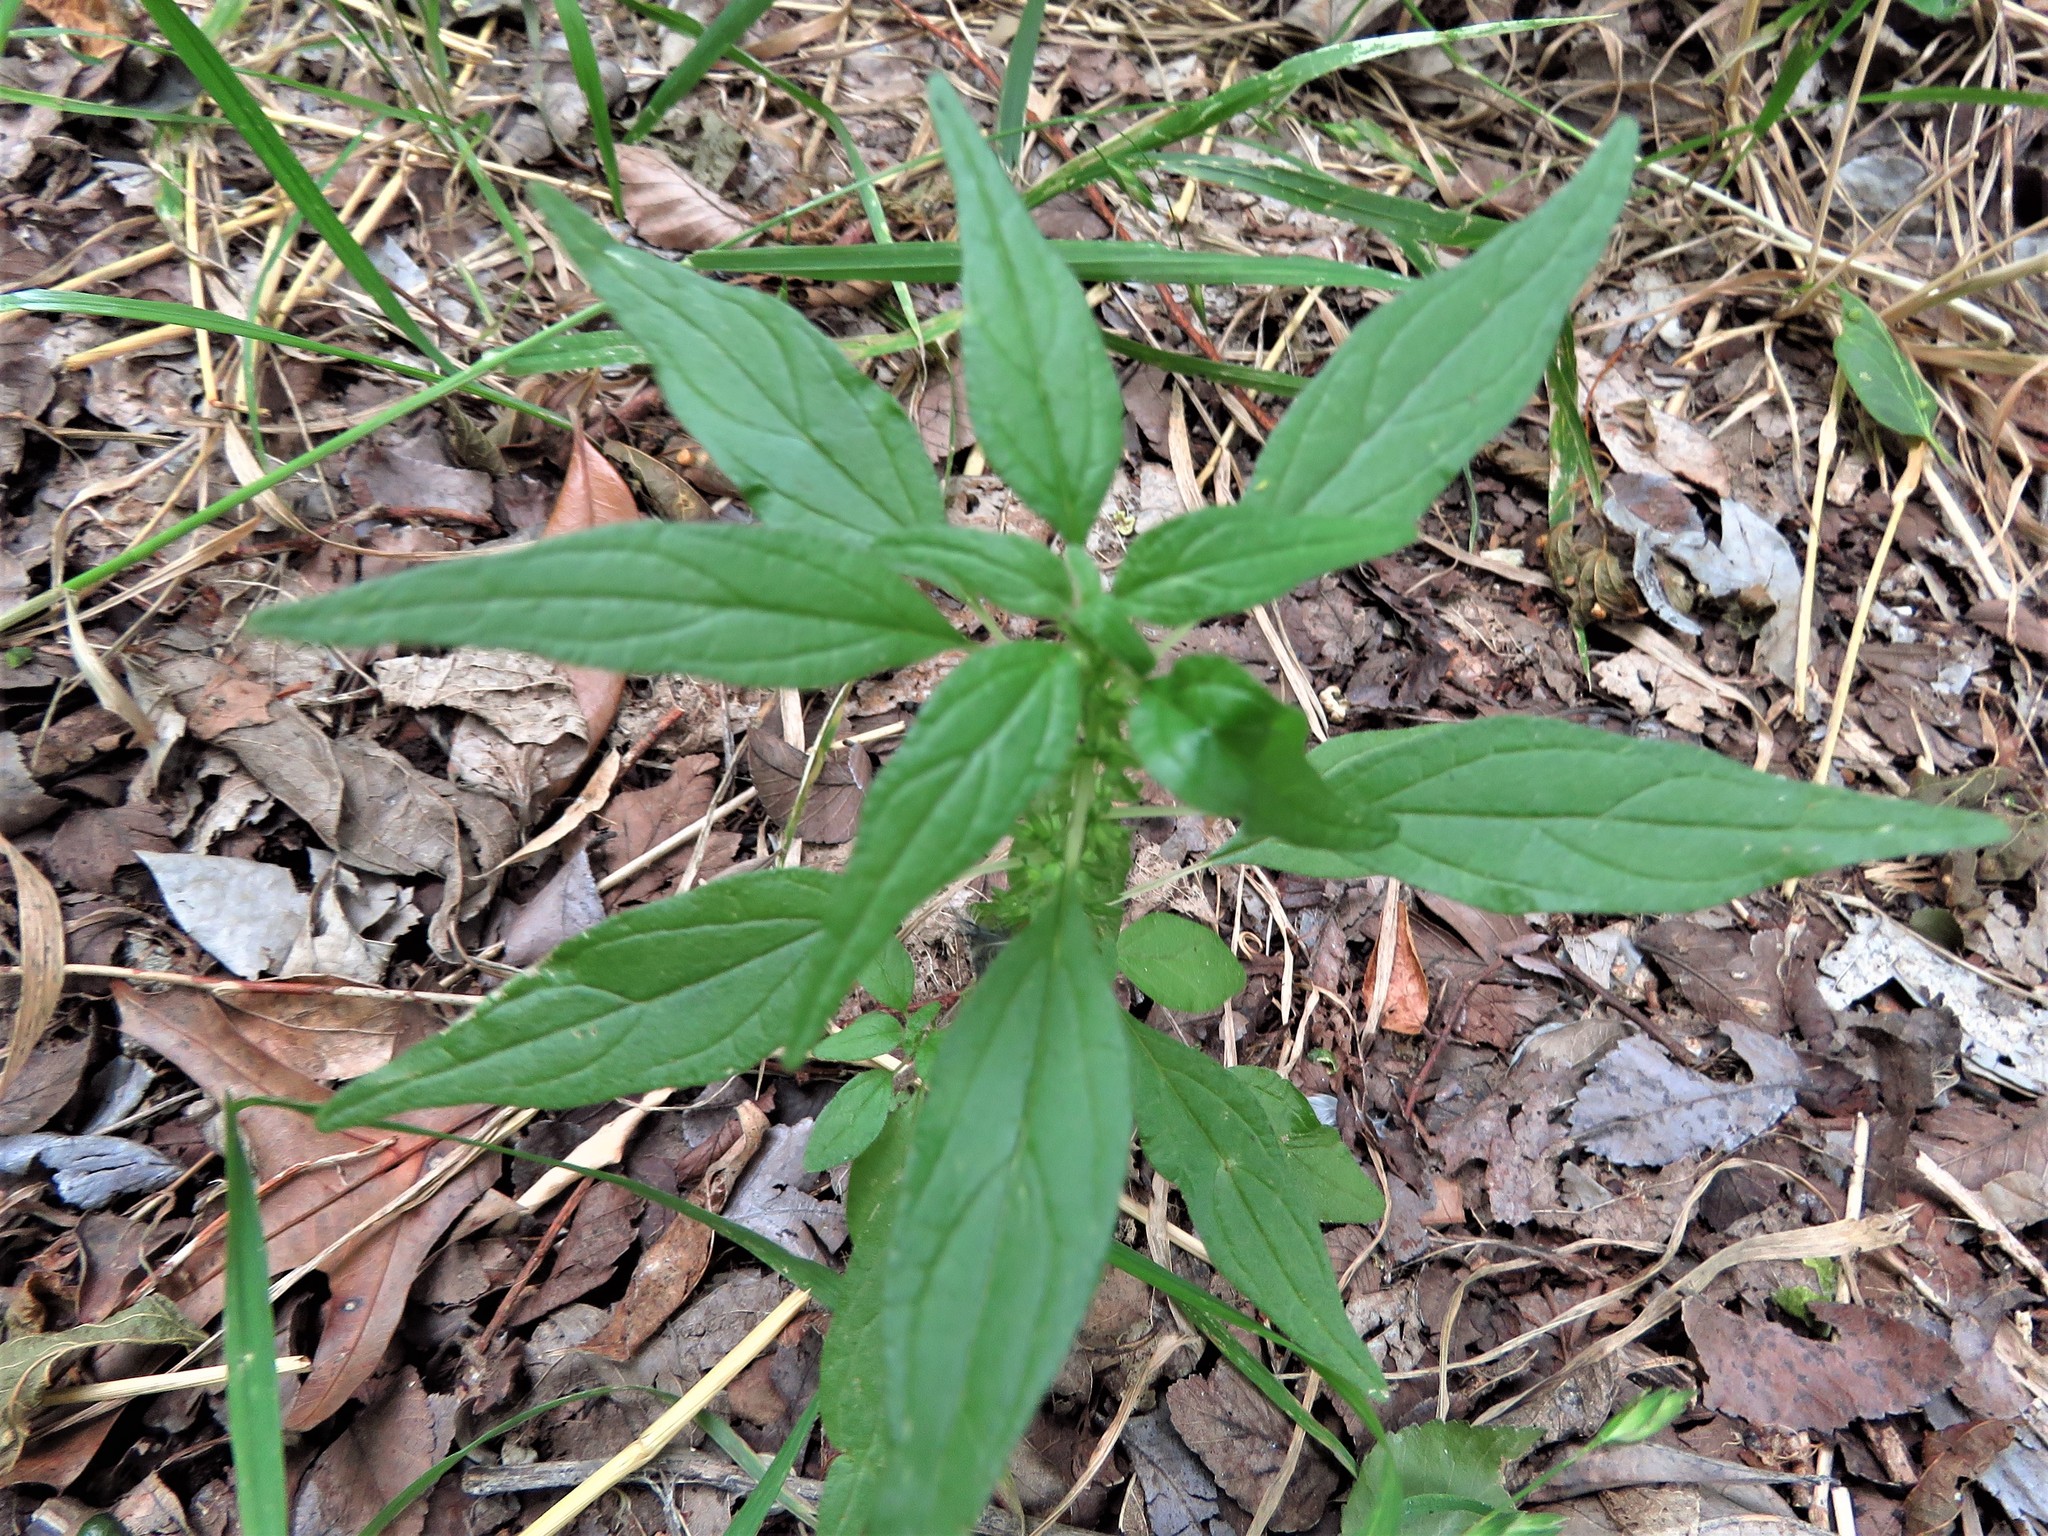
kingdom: Plantae
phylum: Tracheophyta
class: Magnoliopsida
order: Rosales
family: Urticaceae
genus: Parietaria
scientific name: Parietaria pensylvanica
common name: Pennsylvania pellitory
